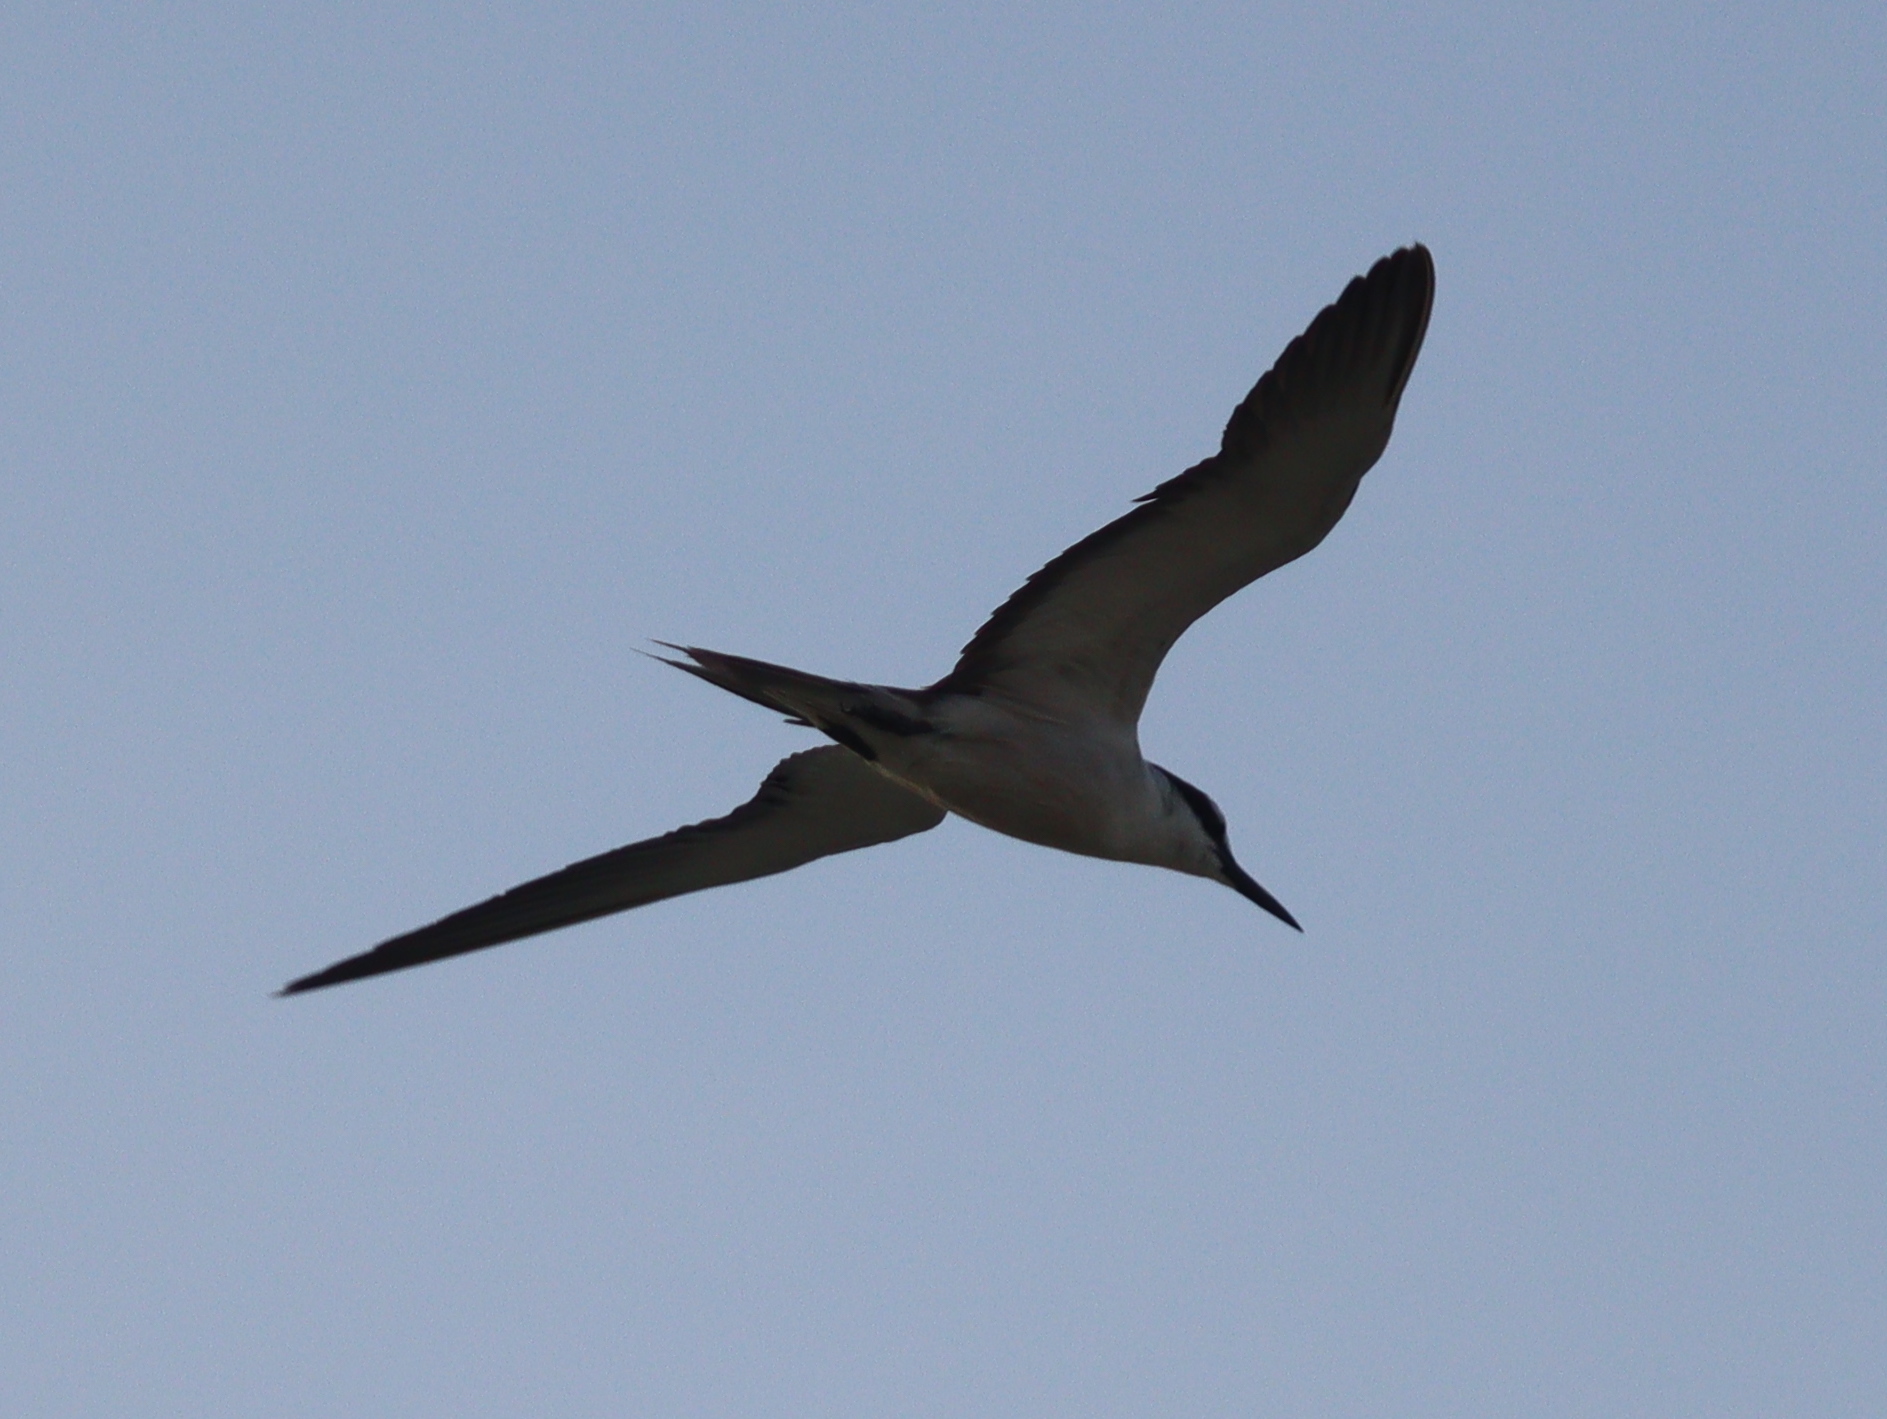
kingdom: Animalia
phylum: Chordata
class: Aves
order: Charadriiformes
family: Laridae
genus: Onychoprion
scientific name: Onychoprion anaethetus
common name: Bridled tern
